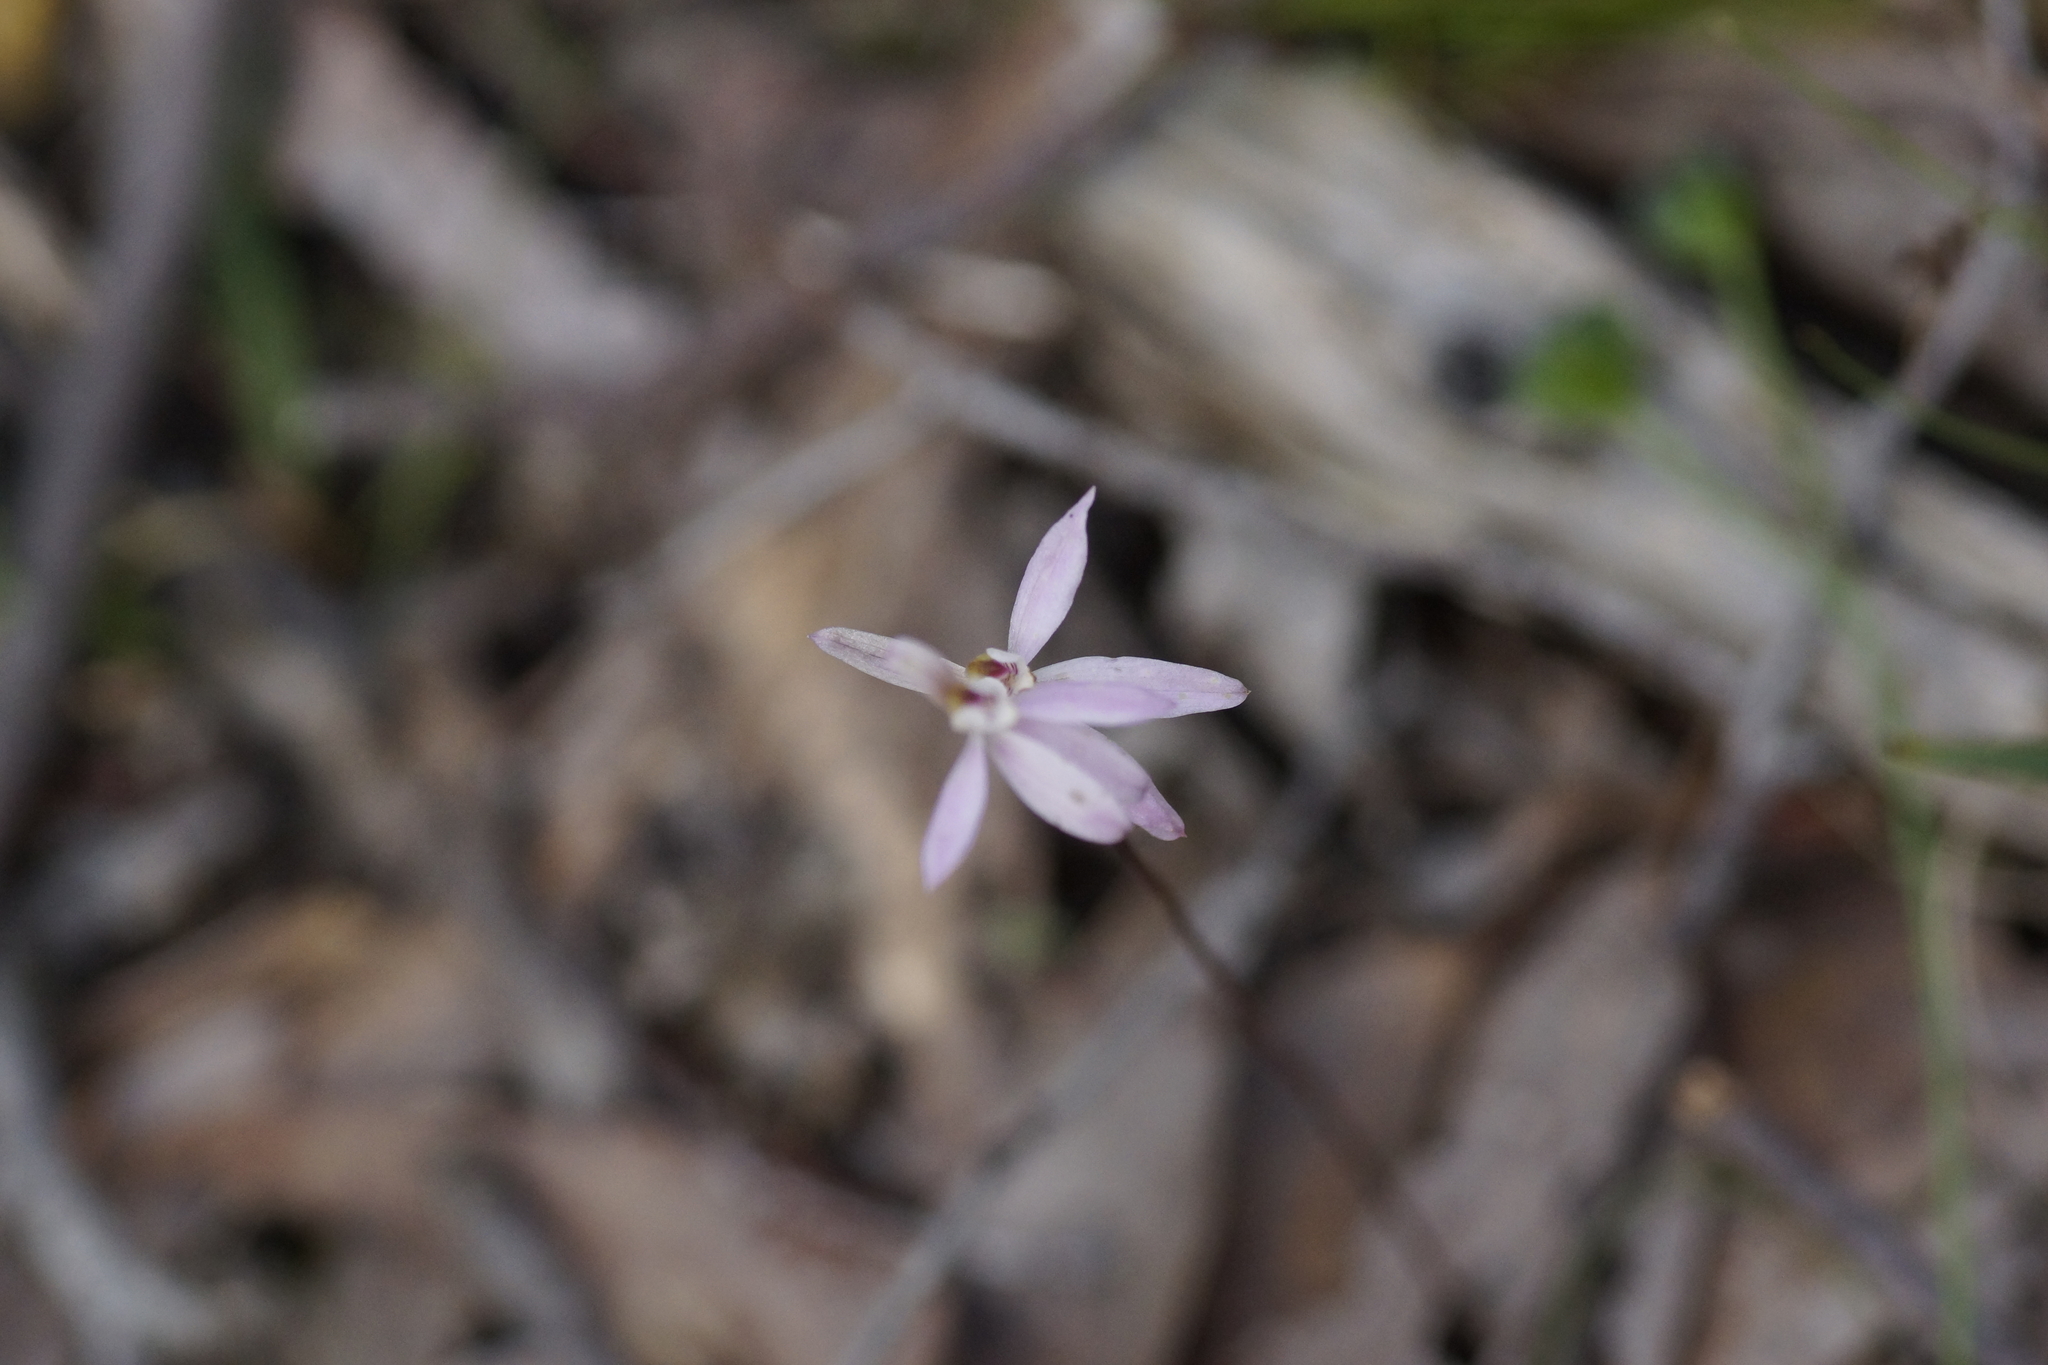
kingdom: Plantae
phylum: Tracheophyta
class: Liliopsida
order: Asparagales
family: Orchidaceae
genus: Caladenia
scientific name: Caladenia carnea
